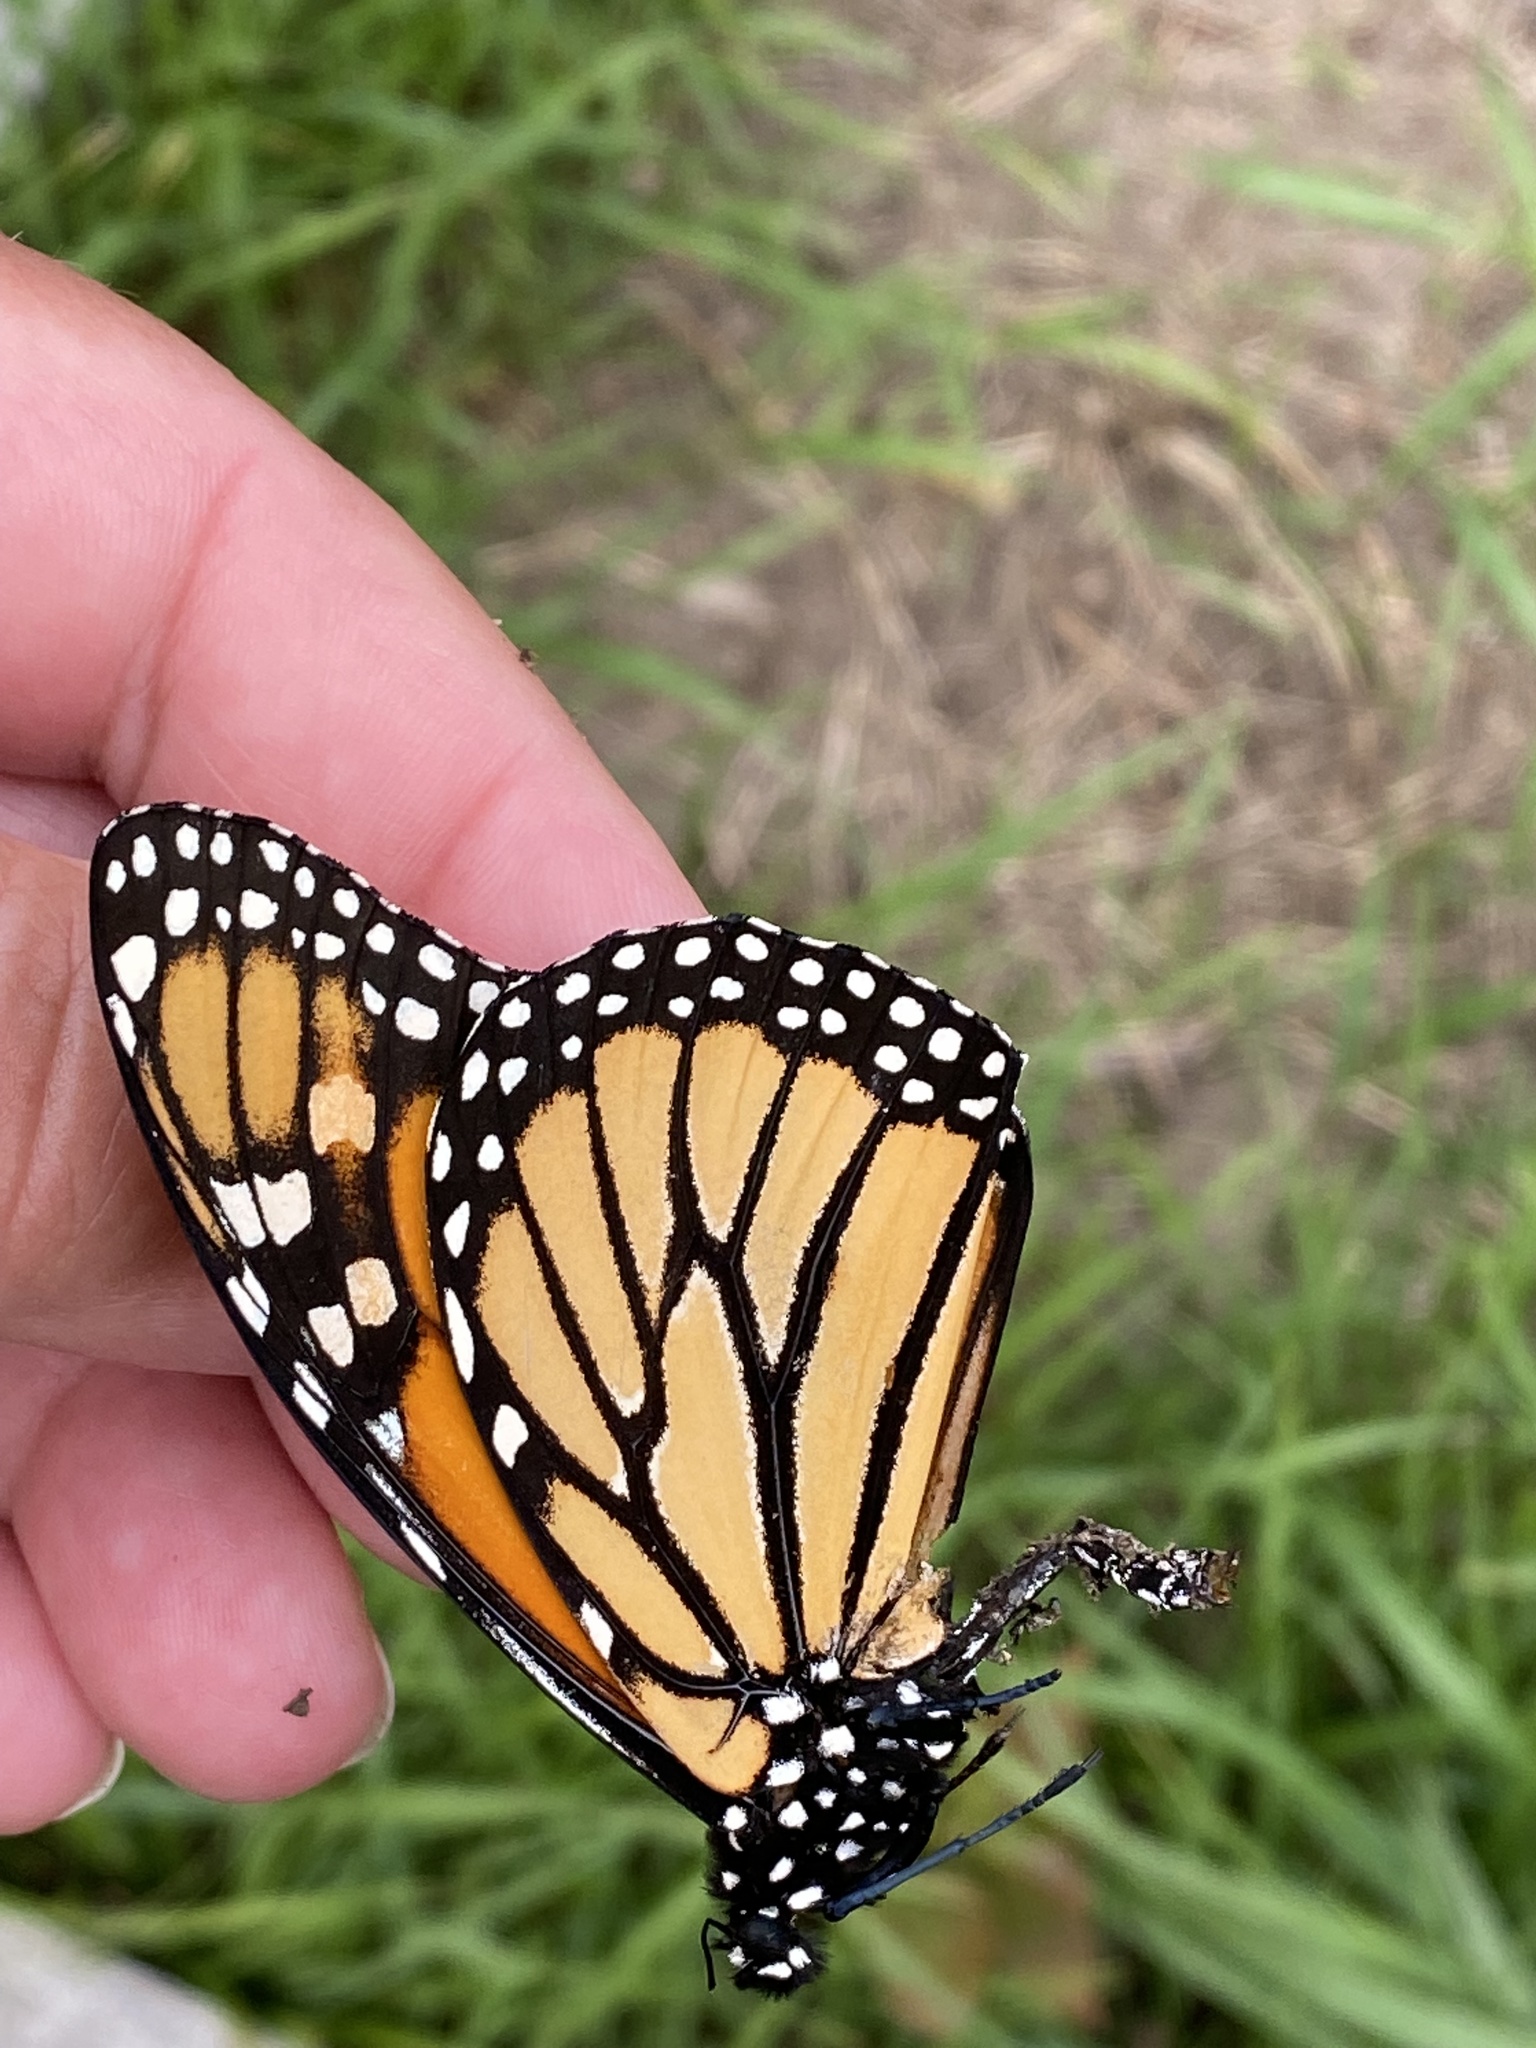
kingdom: Animalia
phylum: Arthropoda
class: Insecta
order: Lepidoptera
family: Nymphalidae
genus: Danaus
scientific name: Danaus plexippus
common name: Monarch
